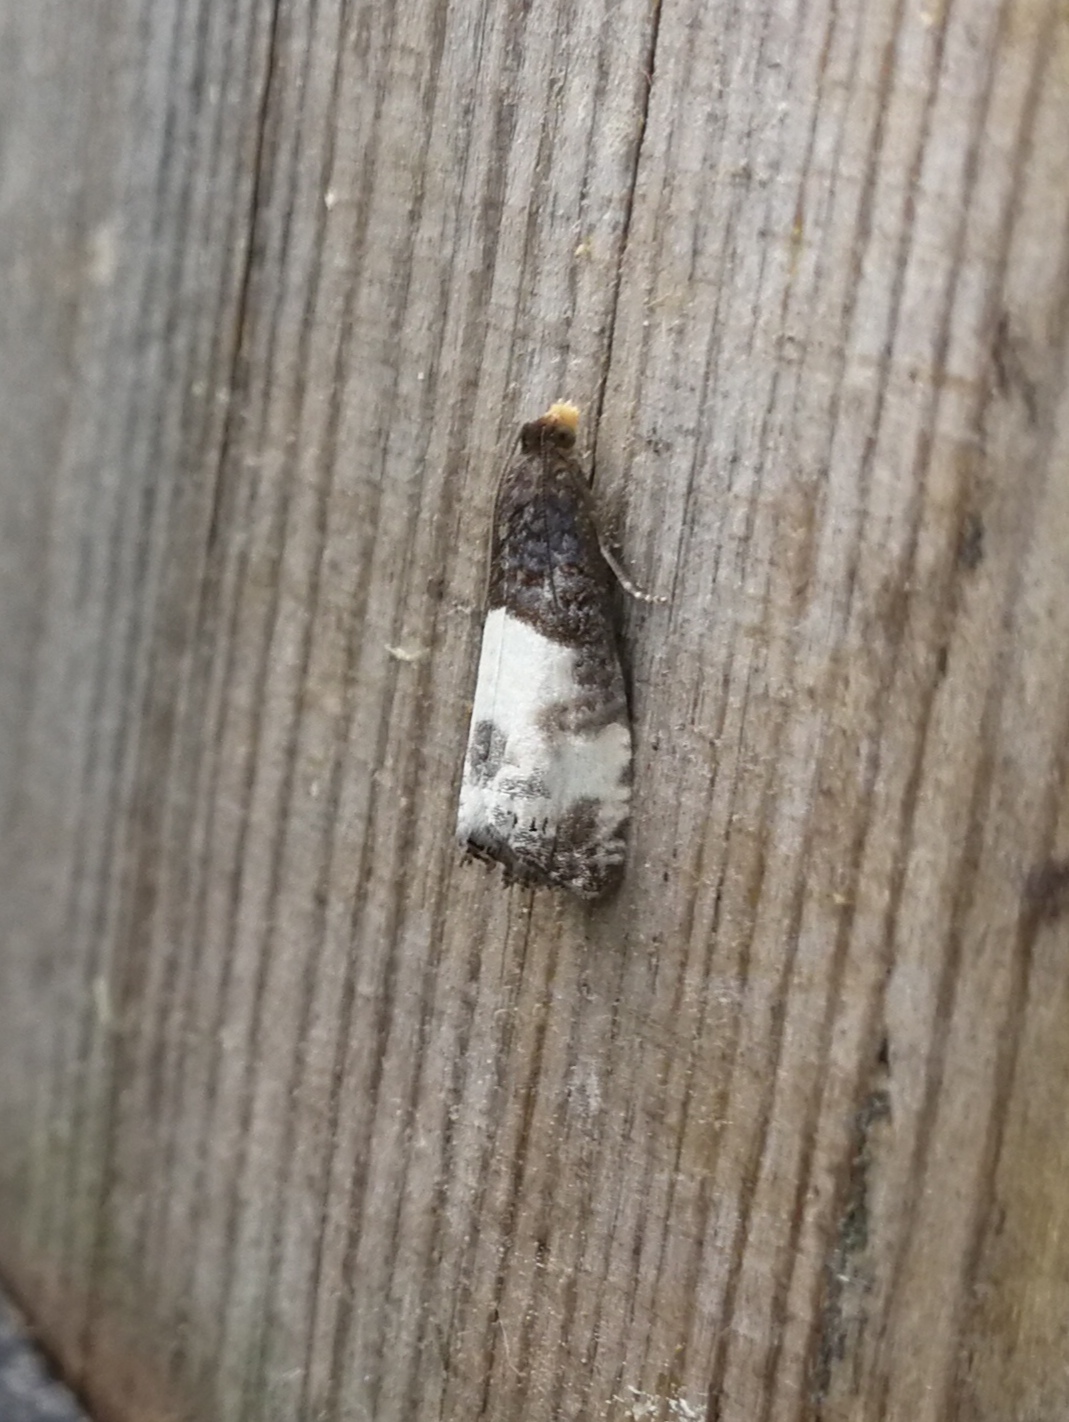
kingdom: Animalia
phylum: Arthropoda
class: Insecta
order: Lepidoptera
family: Tortricidae
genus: Notocelia
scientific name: Notocelia cynosbatella
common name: Yellow-faced bell moth
